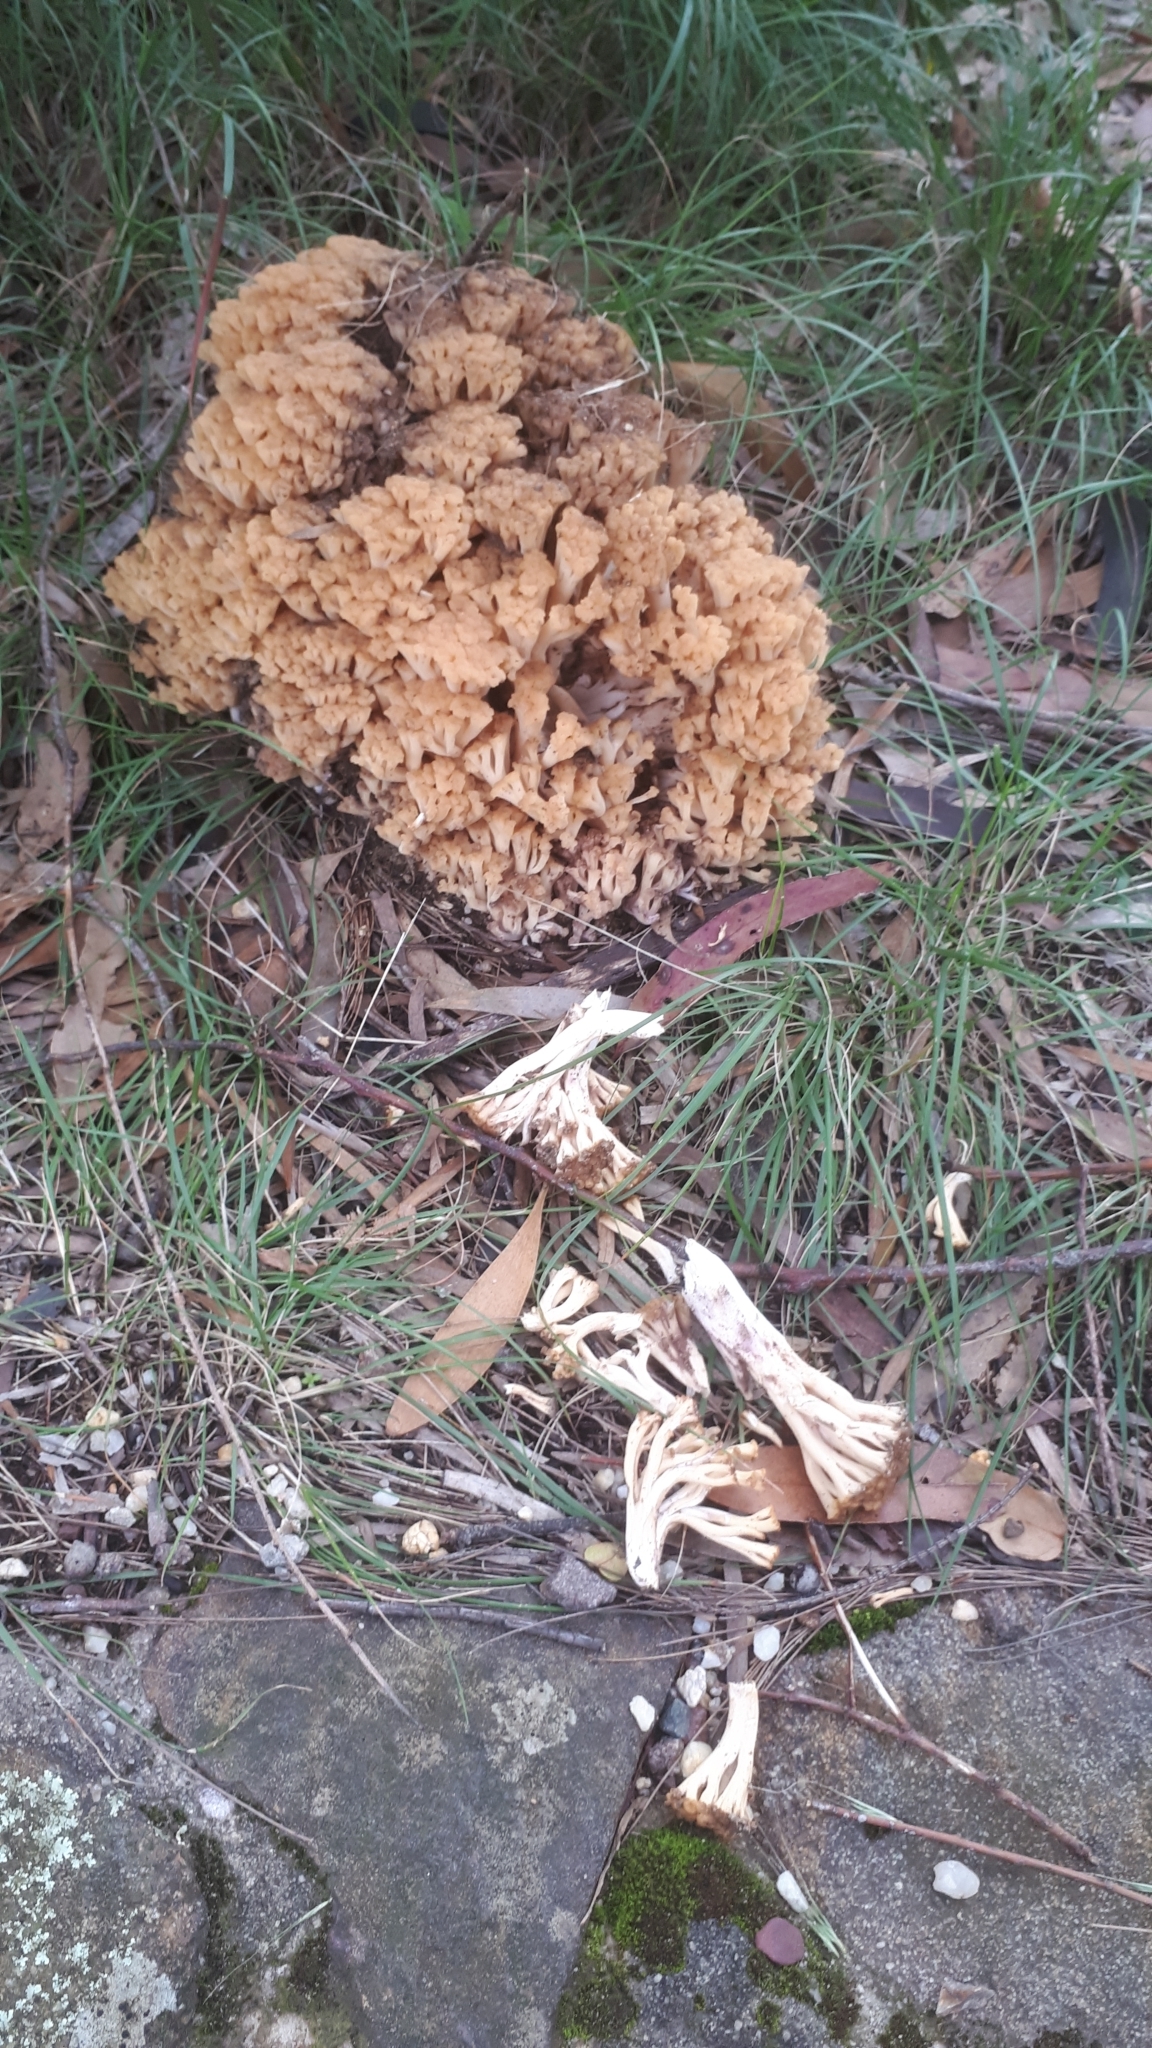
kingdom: Fungi
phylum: Basidiomycota
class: Agaricomycetes
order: Gomphales
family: Gomphaceae
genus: Ramaria
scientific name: Ramaria capitata
